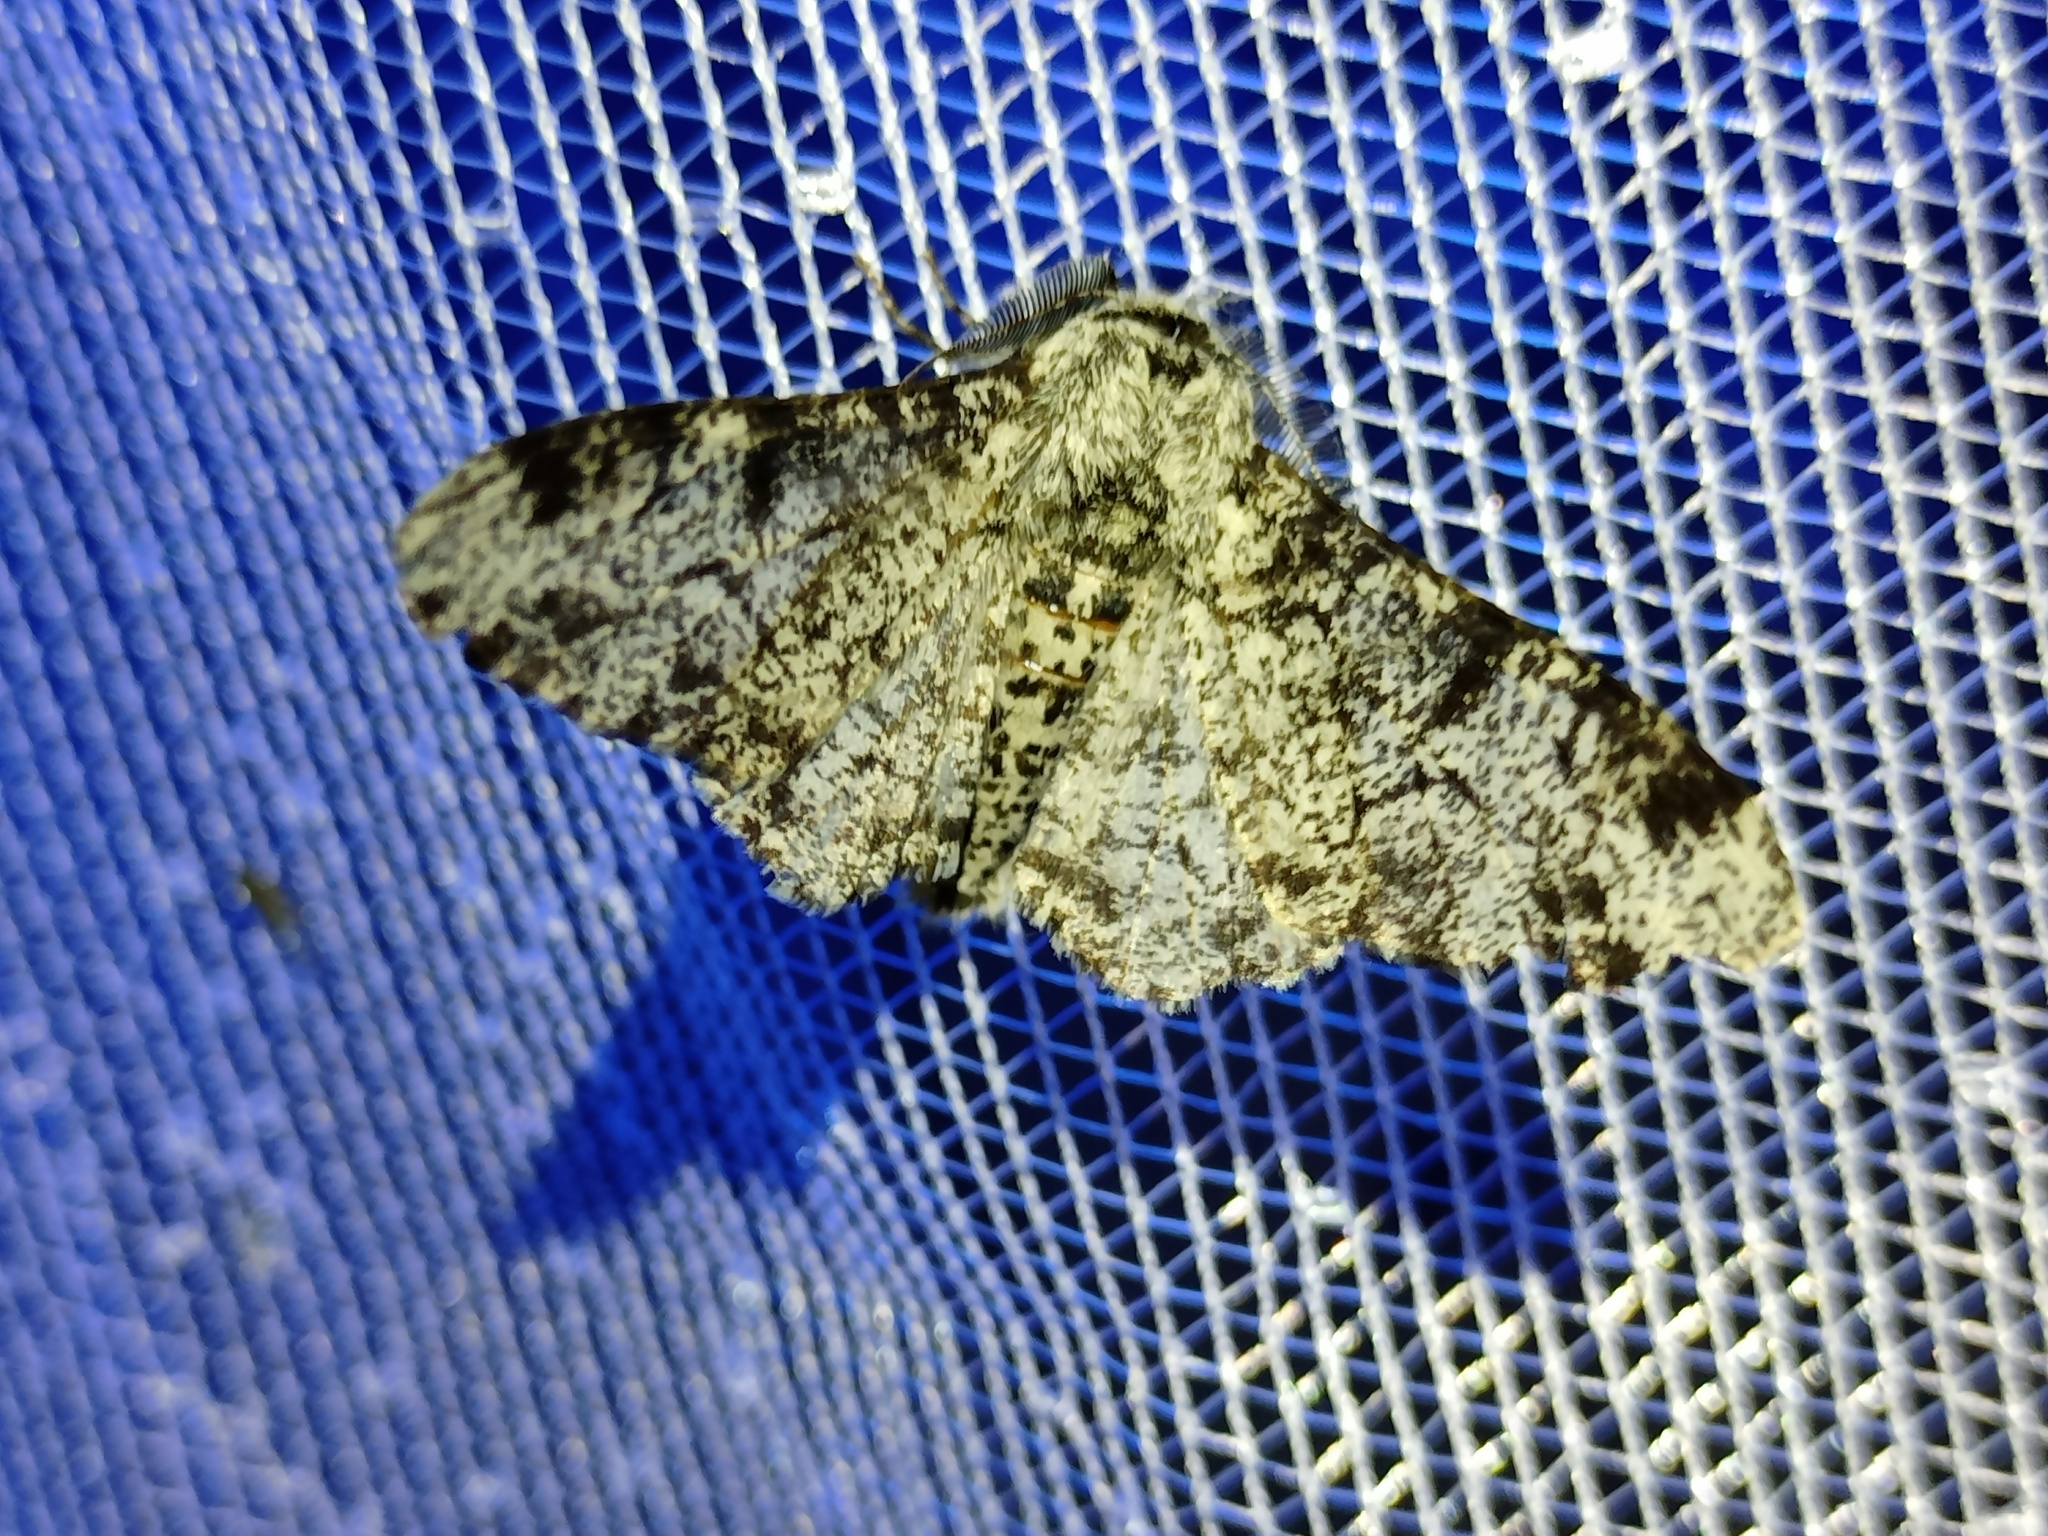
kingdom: Animalia
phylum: Arthropoda
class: Insecta
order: Lepidoptera
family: Geometridae
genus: Biston
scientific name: Biston betularia
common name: Peppered moth
